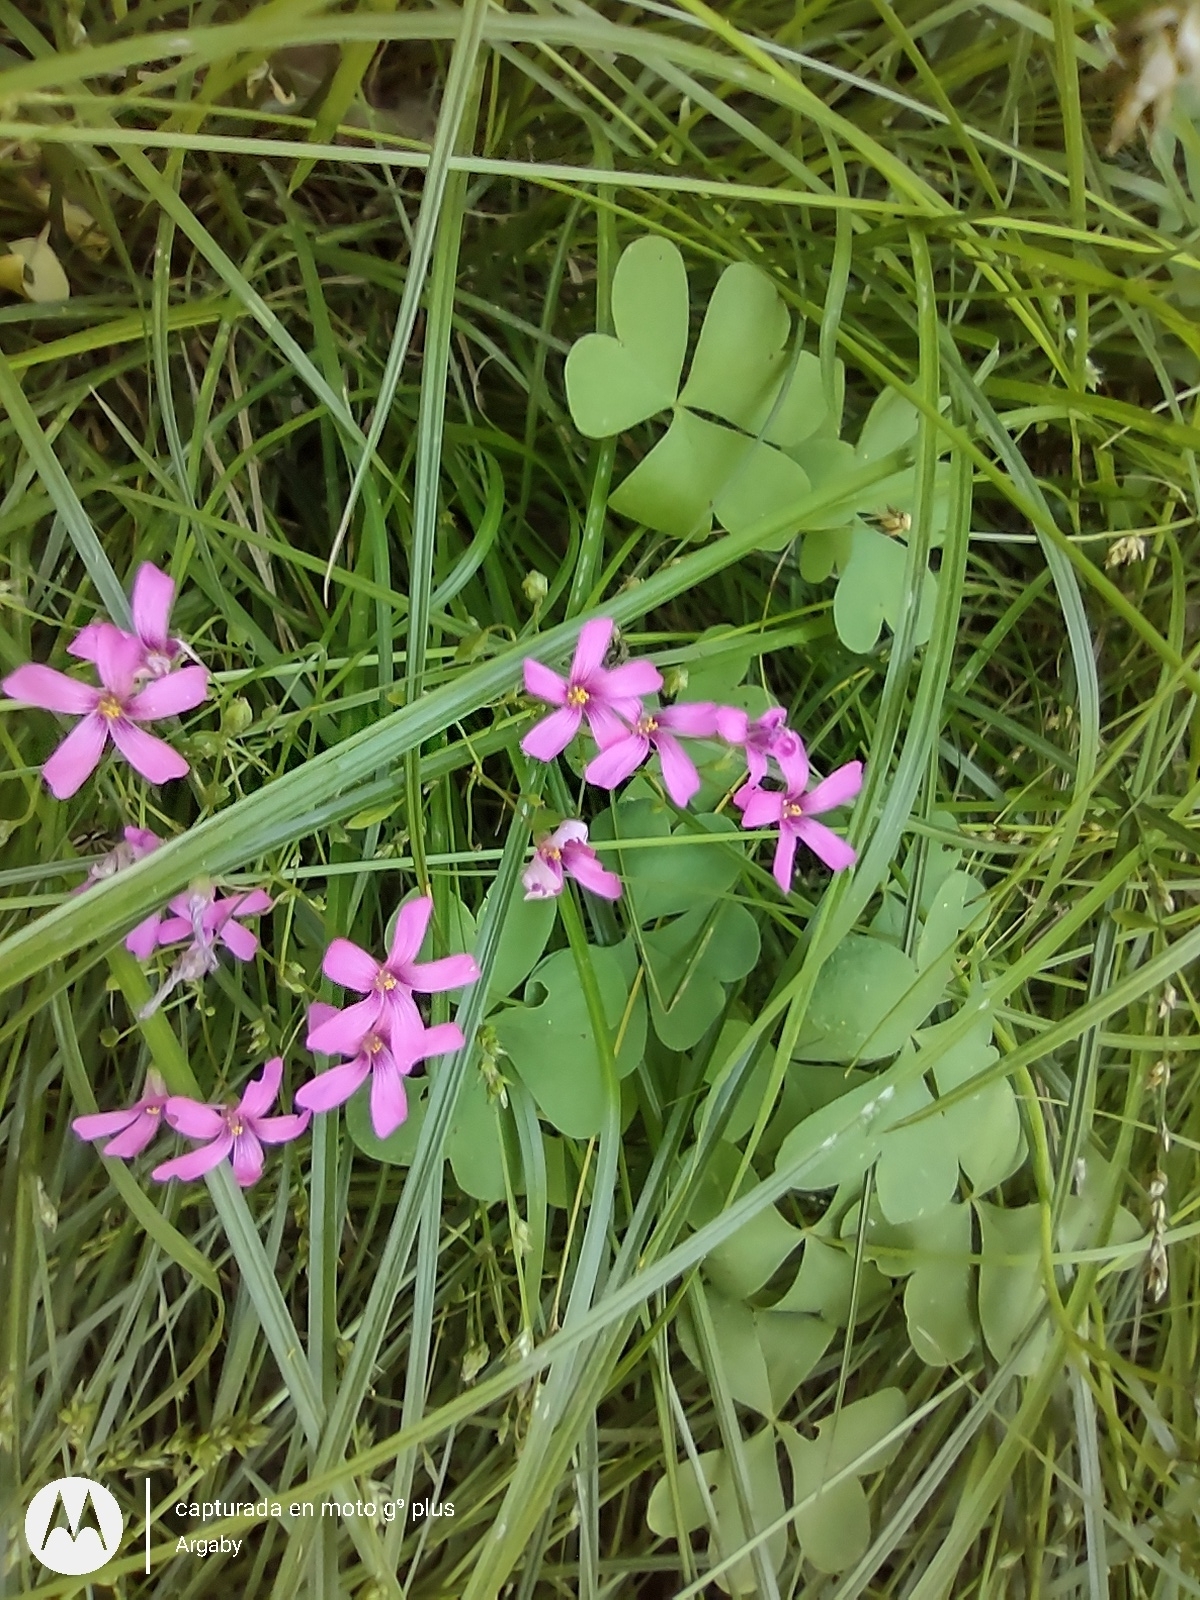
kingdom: Plantae
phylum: Tracheophyta
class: Magnoliopsida
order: Oxalidales
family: Oxalidaceae
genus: Oxalis
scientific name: Oxalis articulata
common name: Pink-sorrel
